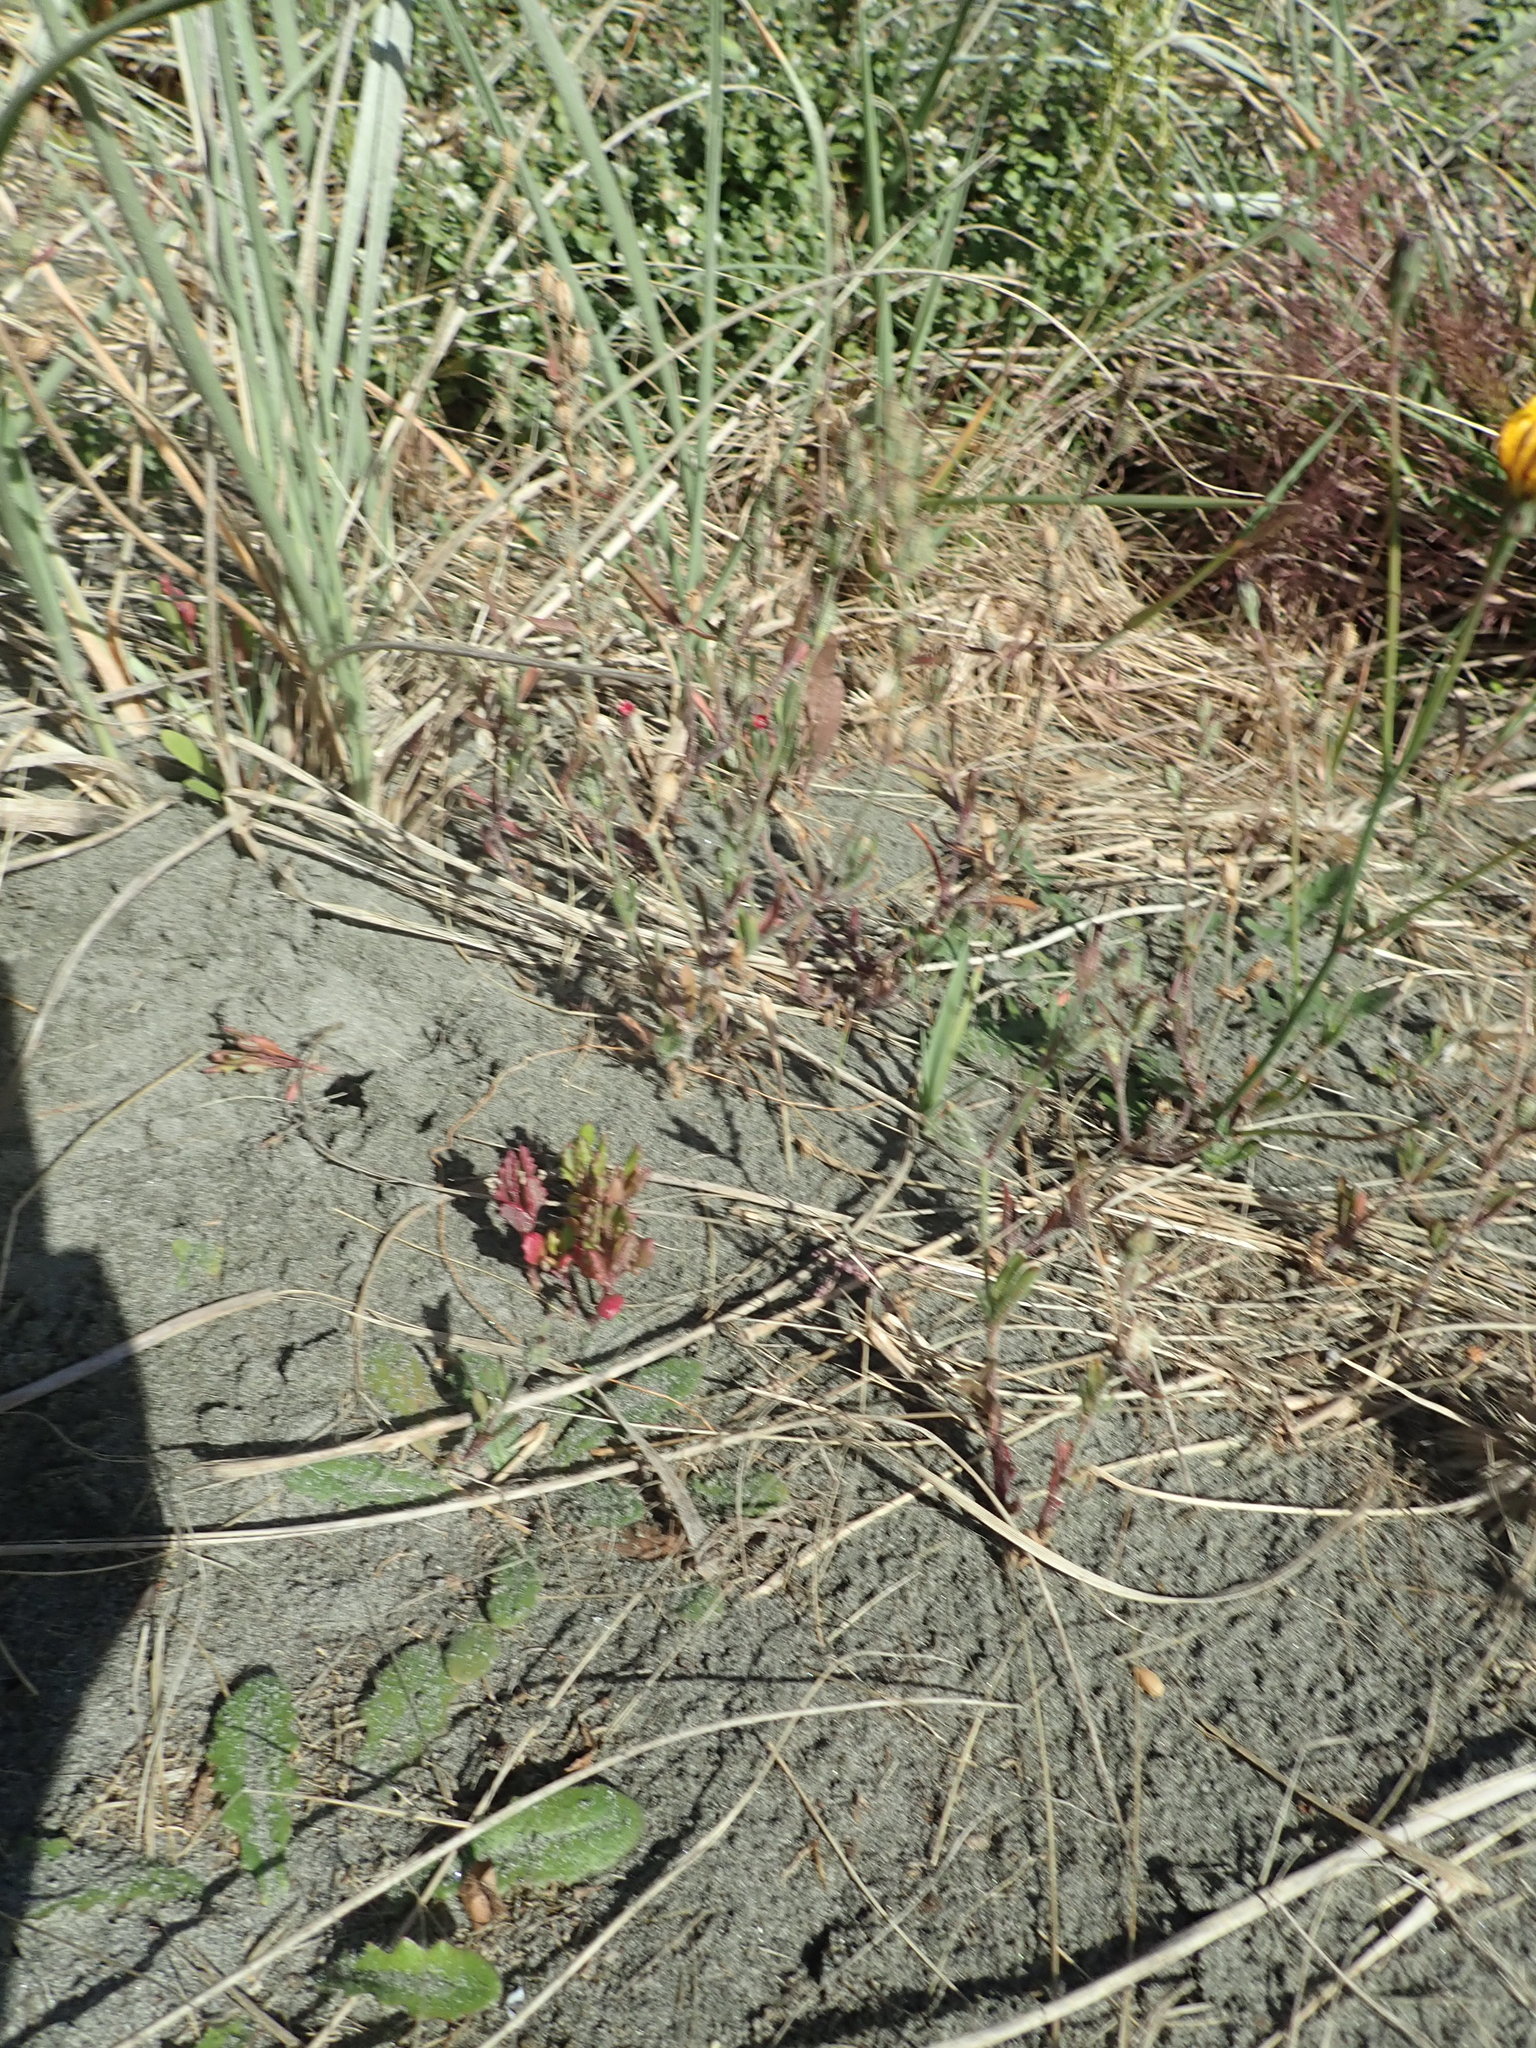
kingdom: Plantae
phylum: Tracheophyta
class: Magnoliopsida
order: Caryophyllales
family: Caryophyllaceae
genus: Silene
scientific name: Silene gallica
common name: Small-flowered catchfly
